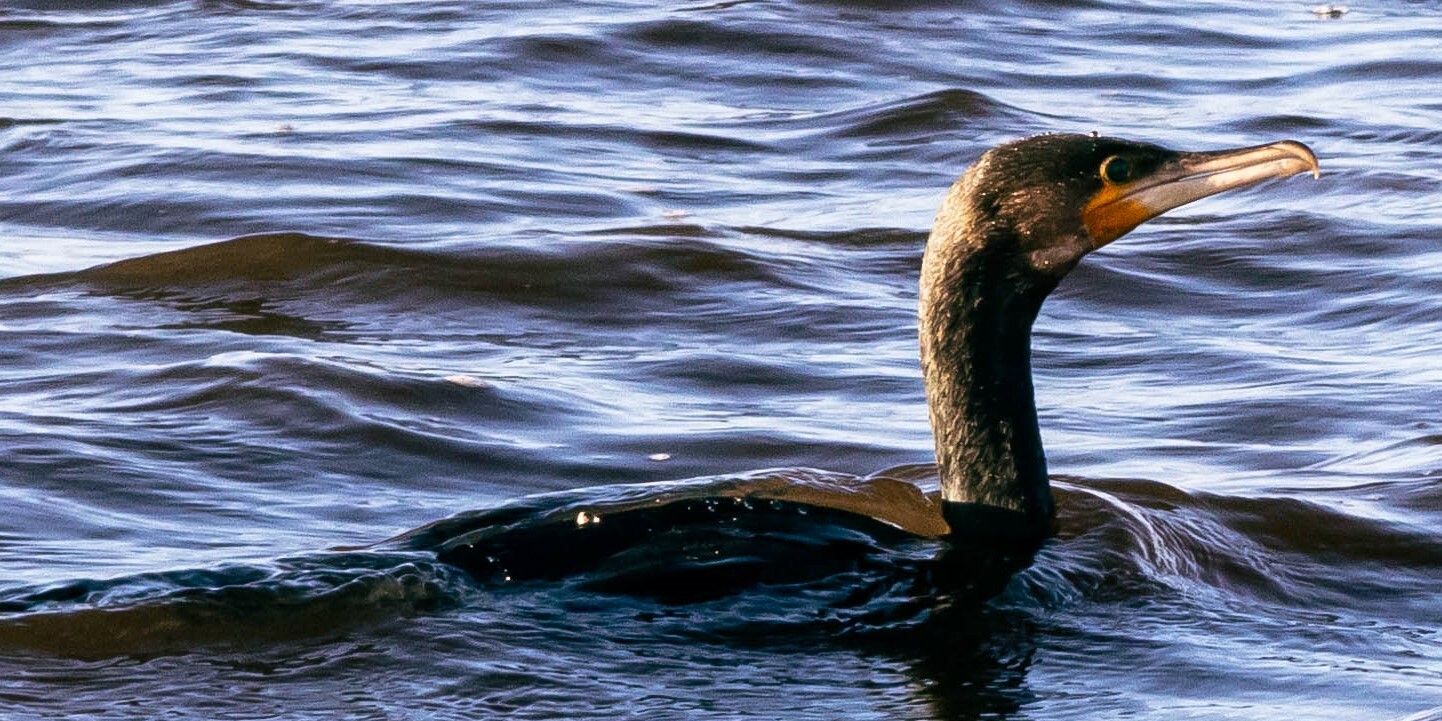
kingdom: Animalia
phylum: Chordata
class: Aves
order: Suliformes
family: Phalacrocoracidae
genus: Phalacrocorax
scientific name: Phalacrocorax carbo
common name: Great cormorant
